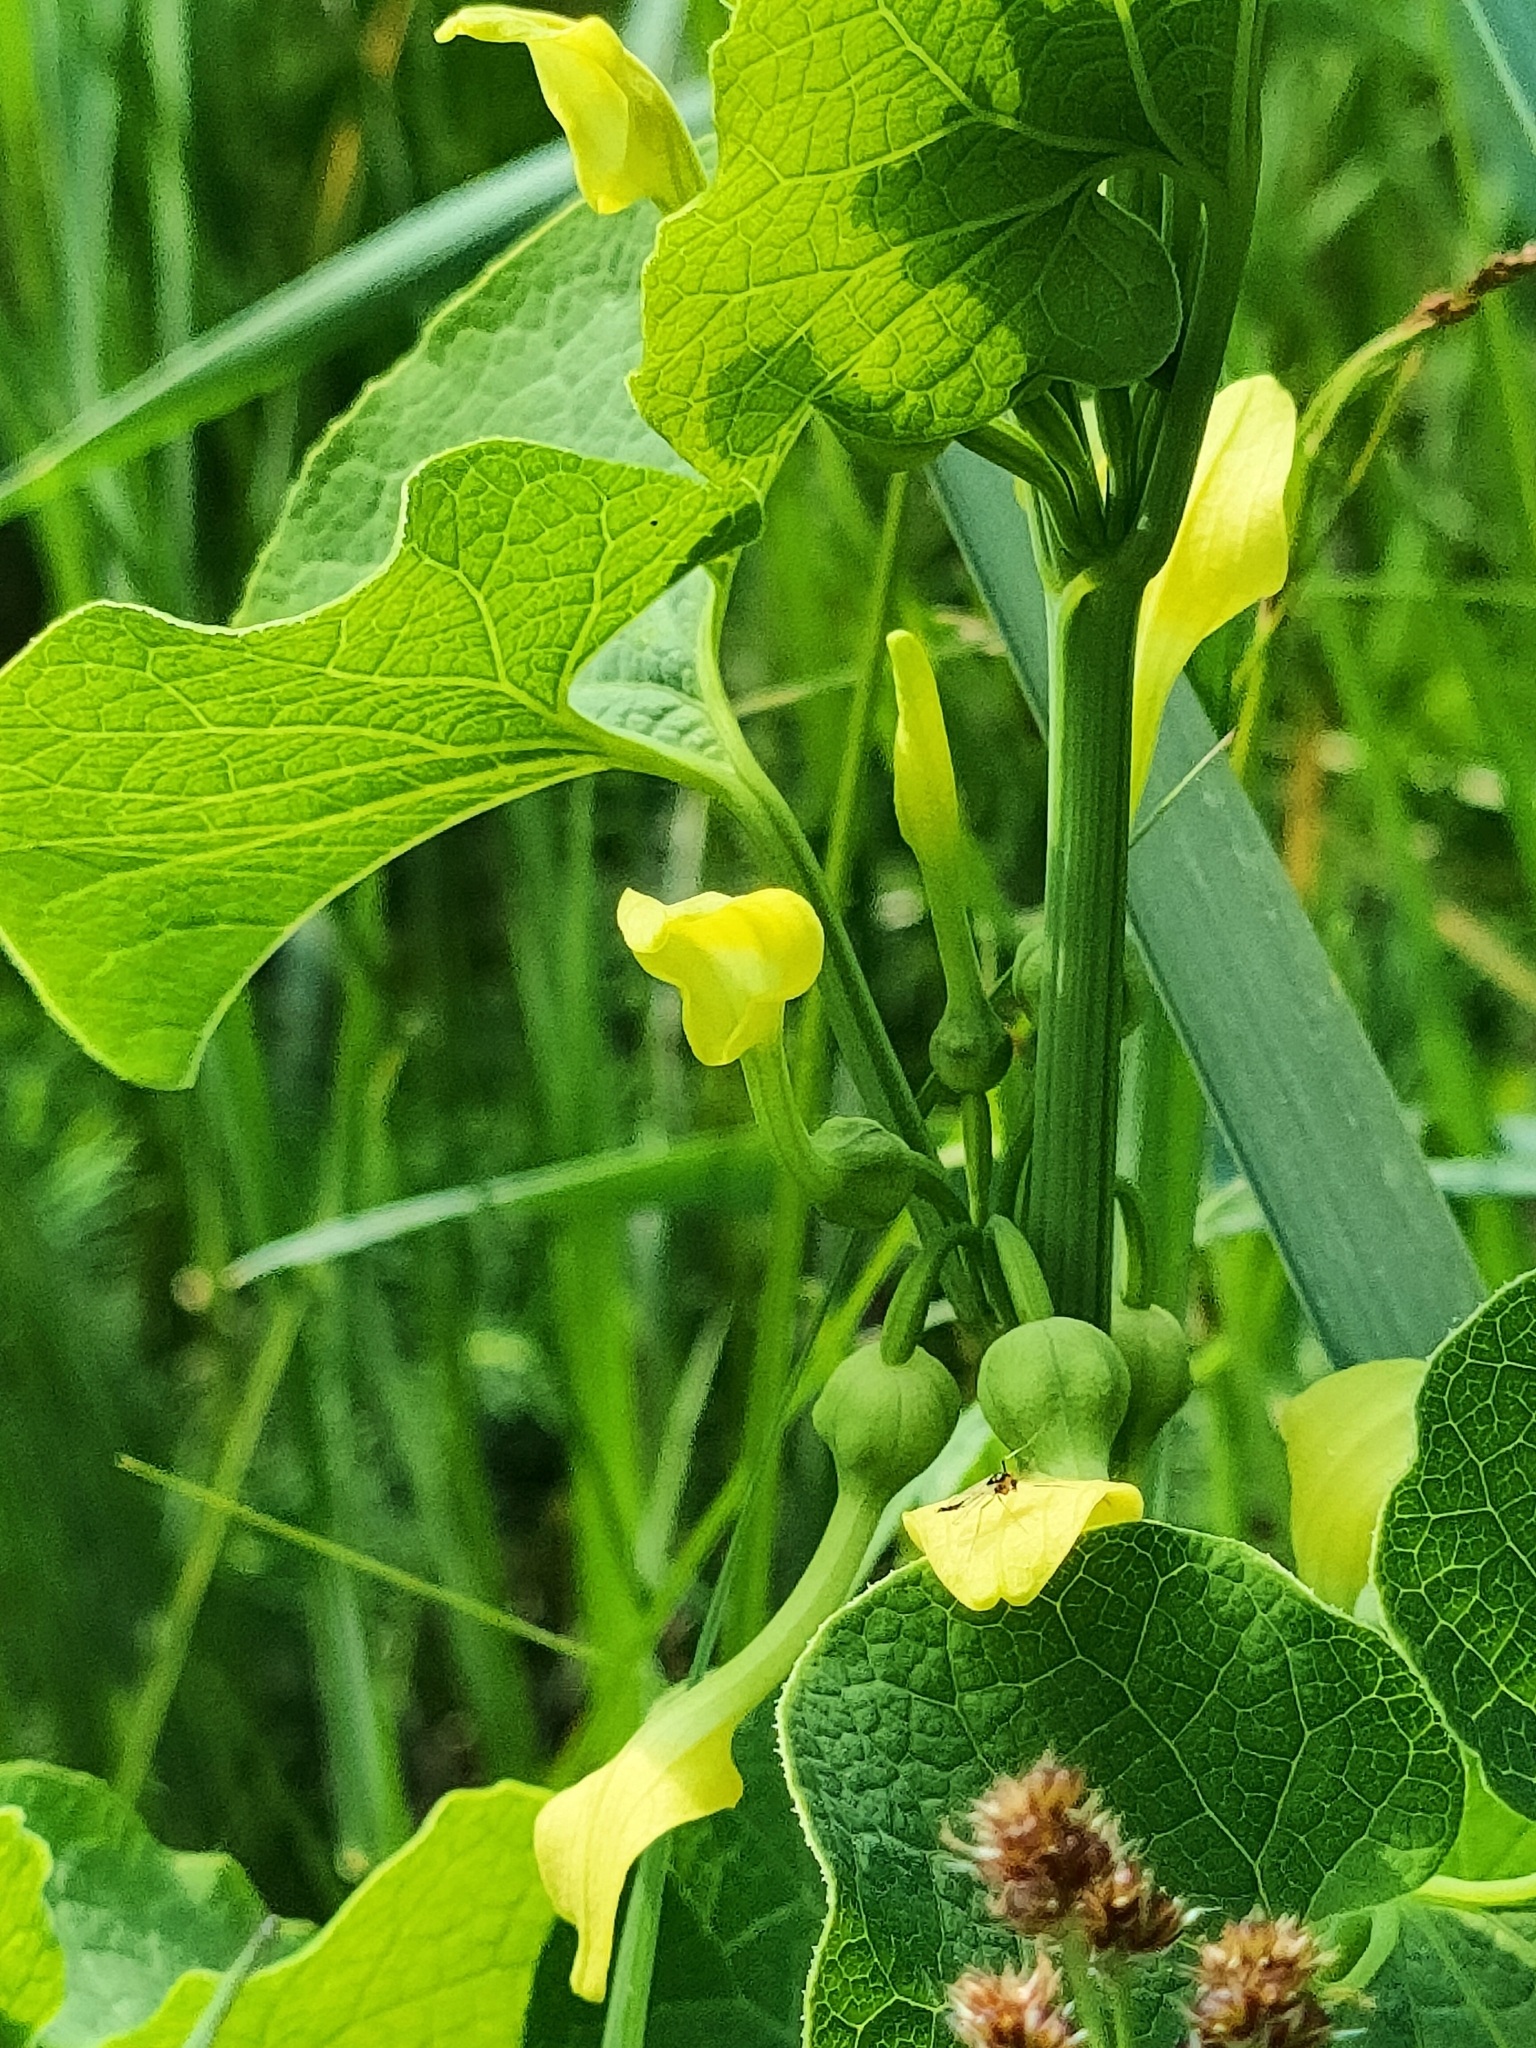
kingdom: Plantae
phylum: Tracheophyta
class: Magnoliopsida
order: Piperales
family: Aristolochiaceae
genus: Aristolochia
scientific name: Aristolochia clematitis
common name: Birthwort
